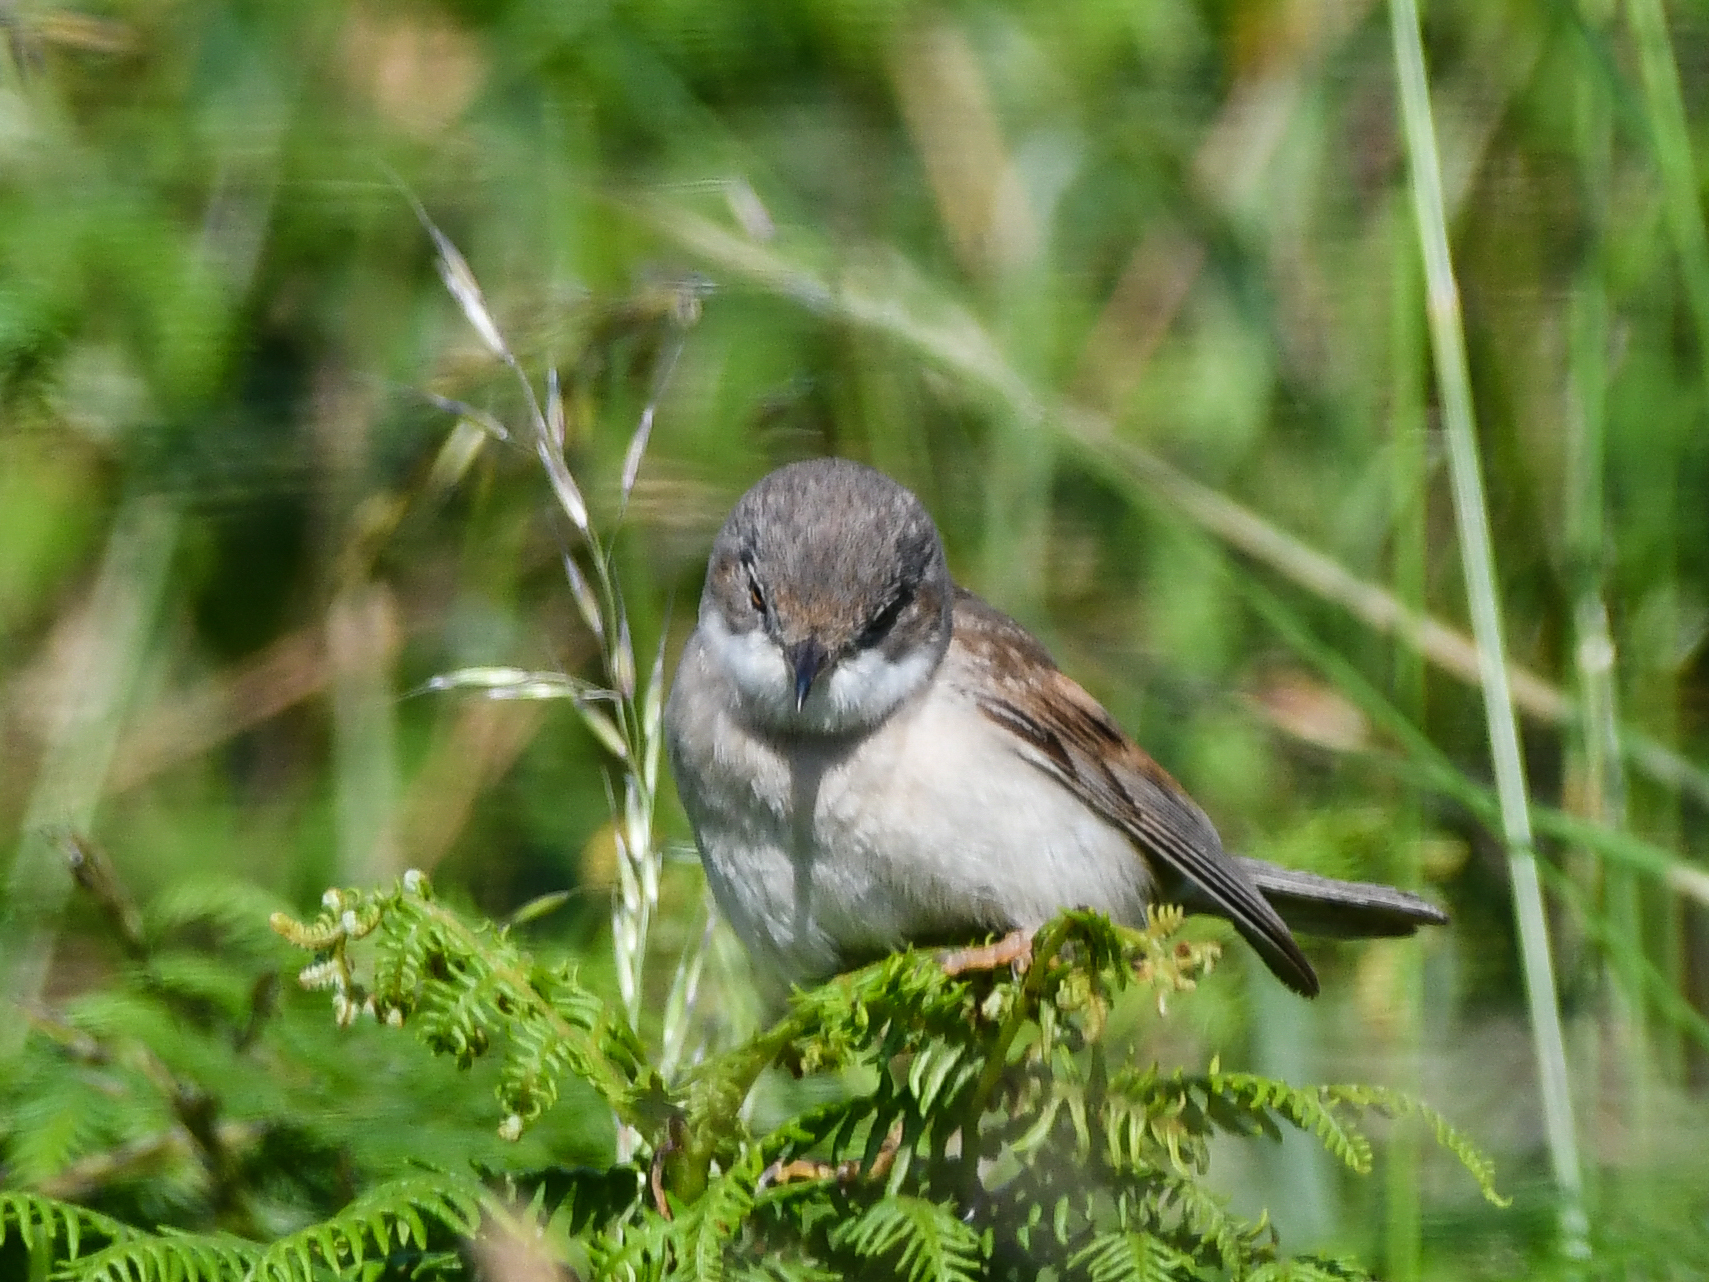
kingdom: Animalia
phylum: Chordata
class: Aves
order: Passeriformes
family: Sylviidae
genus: Sylvia
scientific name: Sylvia communis
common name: Common whitethroat
